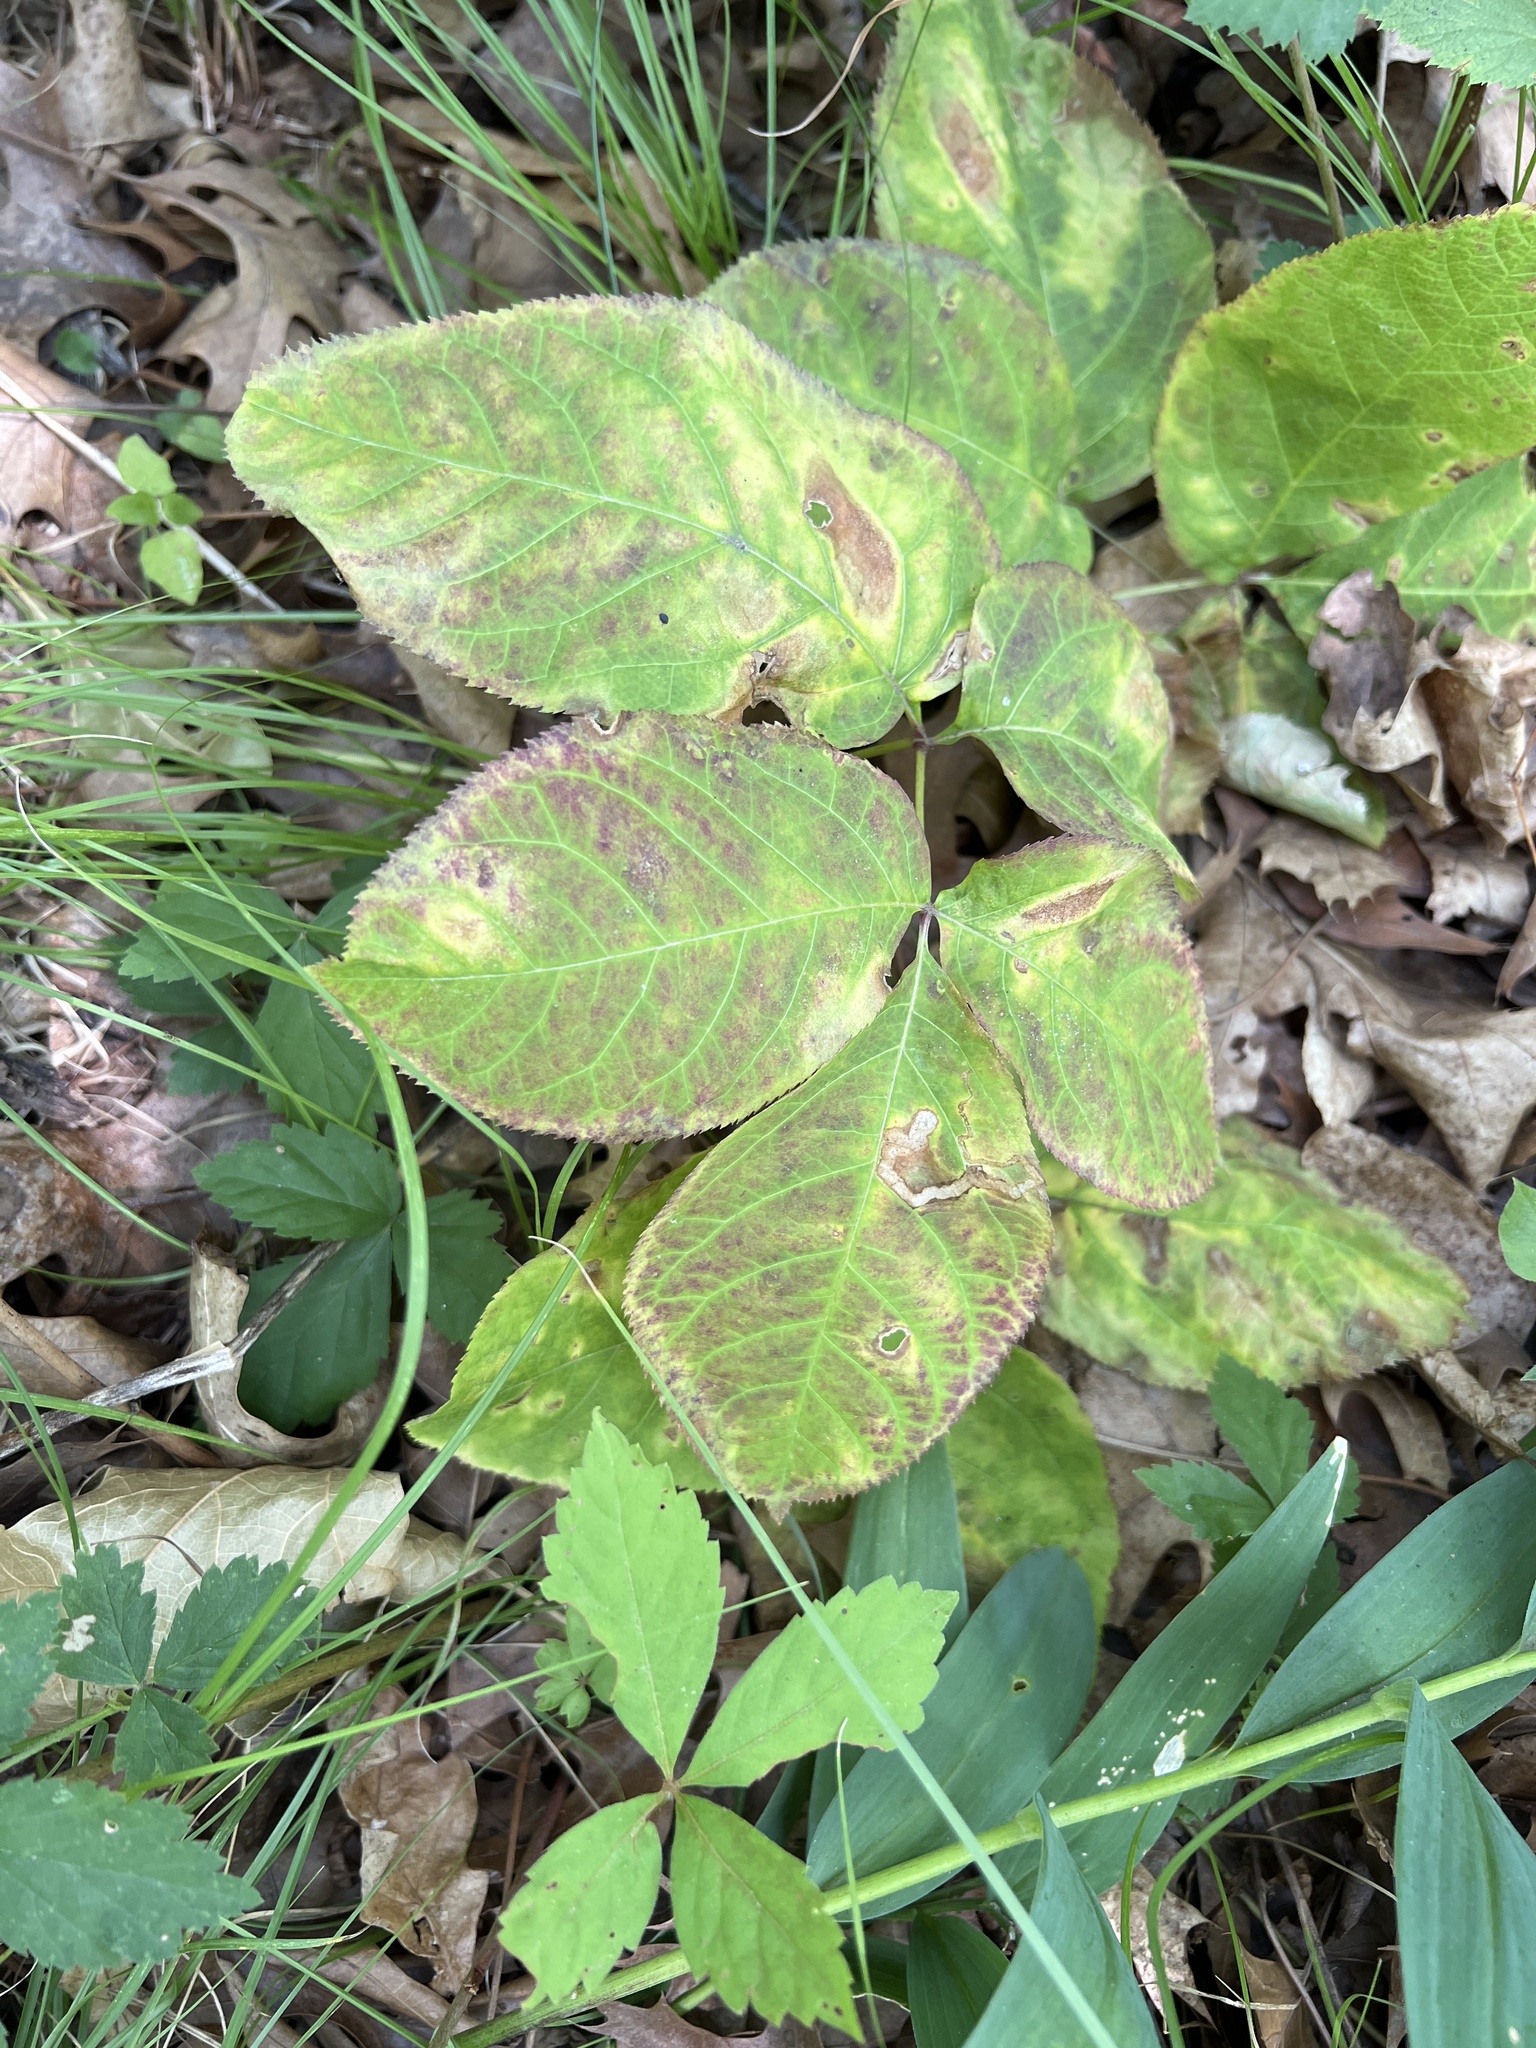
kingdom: Plantae
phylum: Tracheophyta
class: Magnoliopsida
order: Apiales
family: Araliaceae
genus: Aralia
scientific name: Aralia nudicaulis
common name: Wild sarsaparilla
